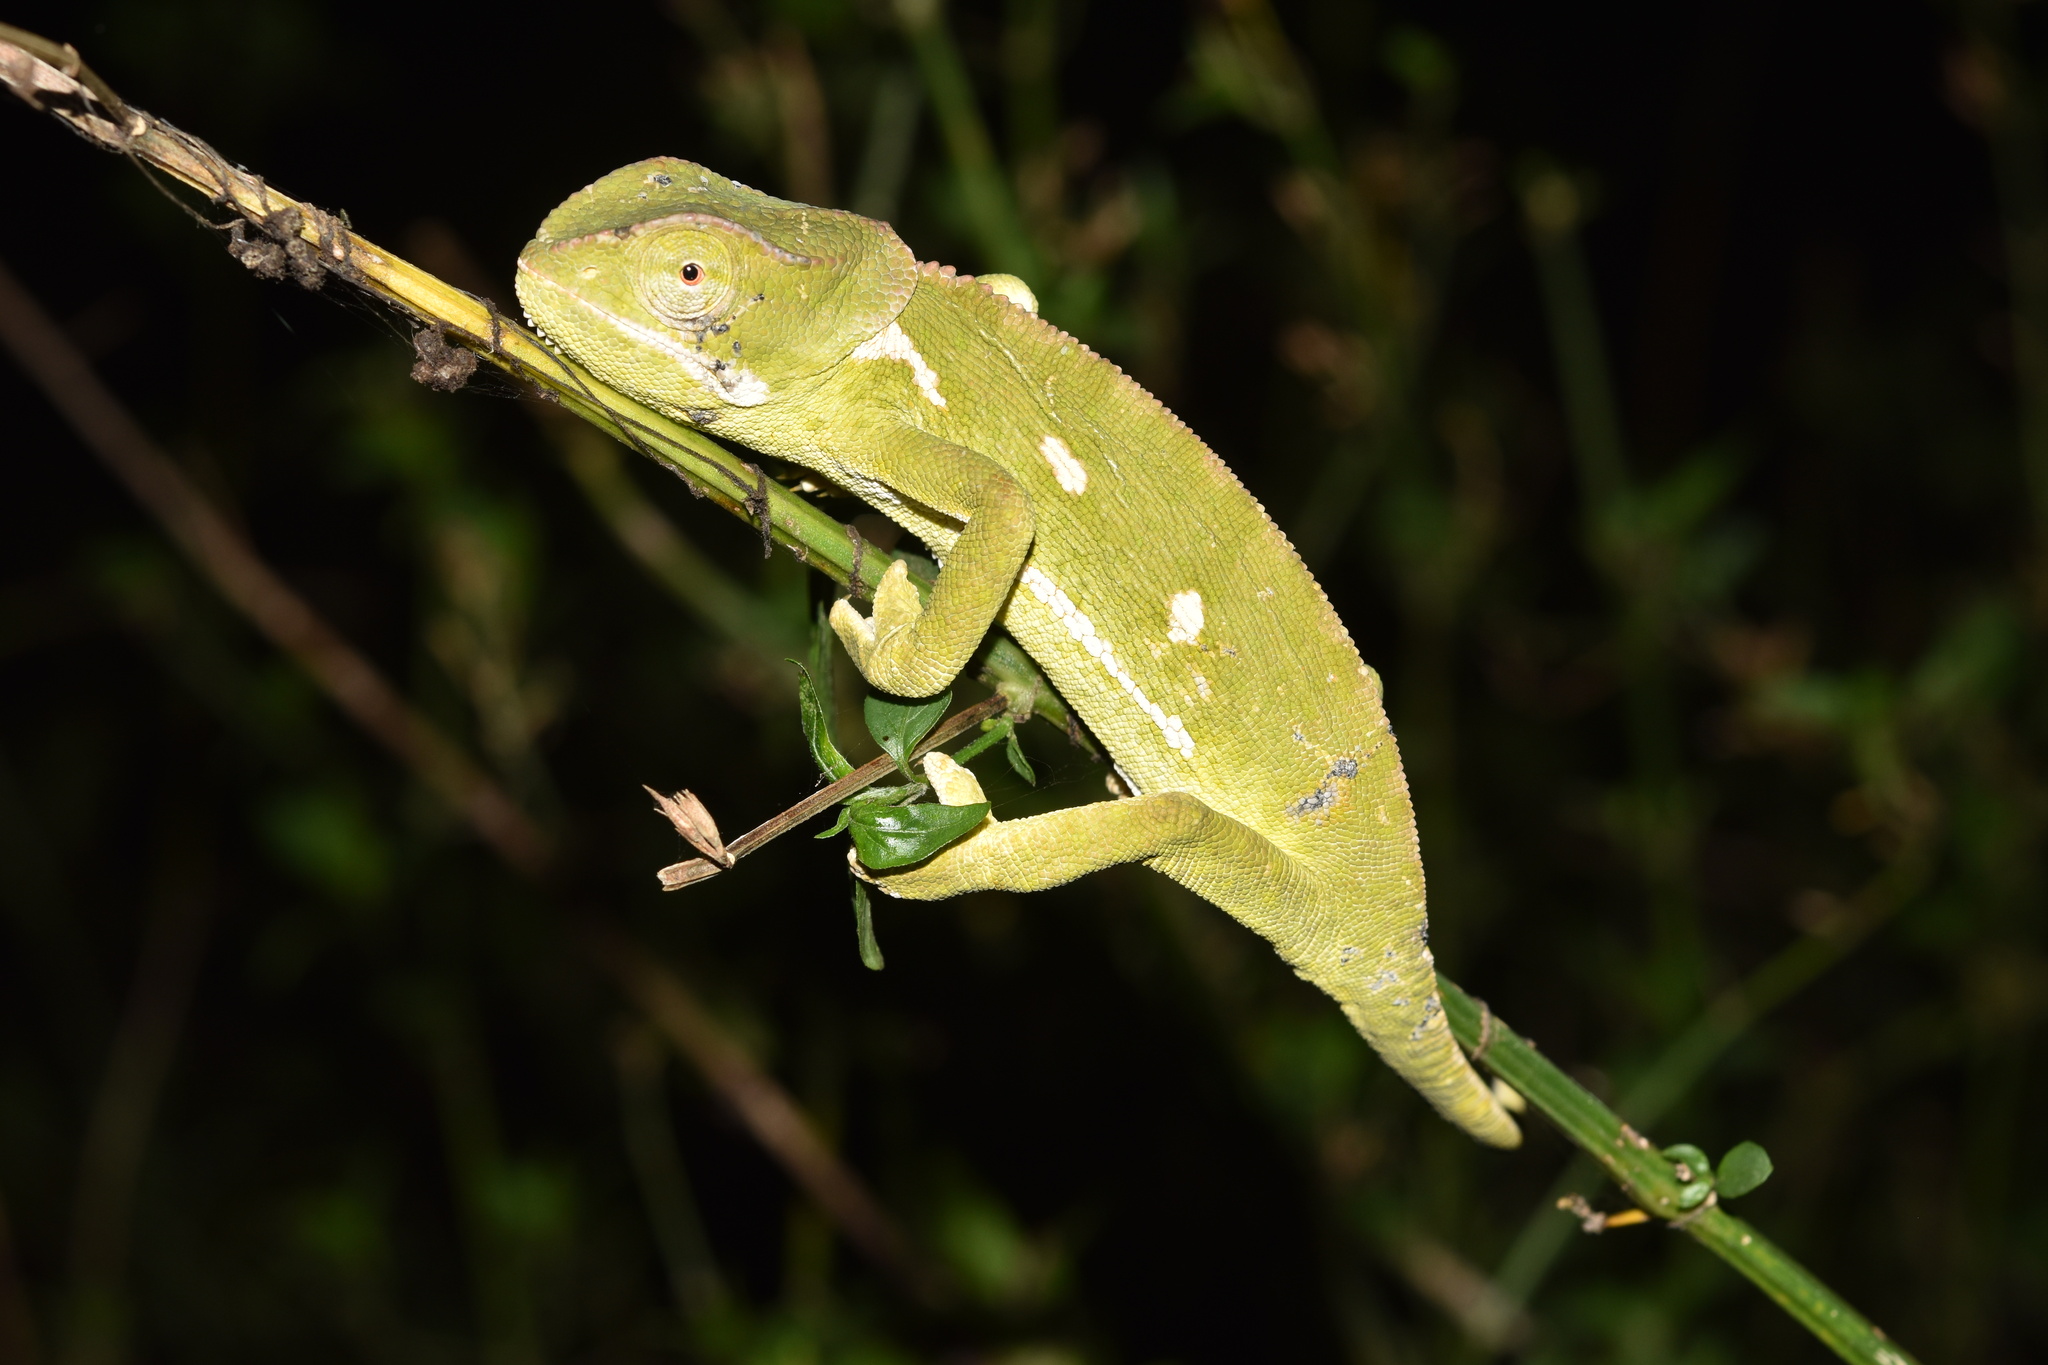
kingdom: Animalia
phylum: Chordata
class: Squamata
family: Chamaeleonidae
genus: Chamaeleo
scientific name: Chamaeleo dilepis
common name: Flapneck chameleon
